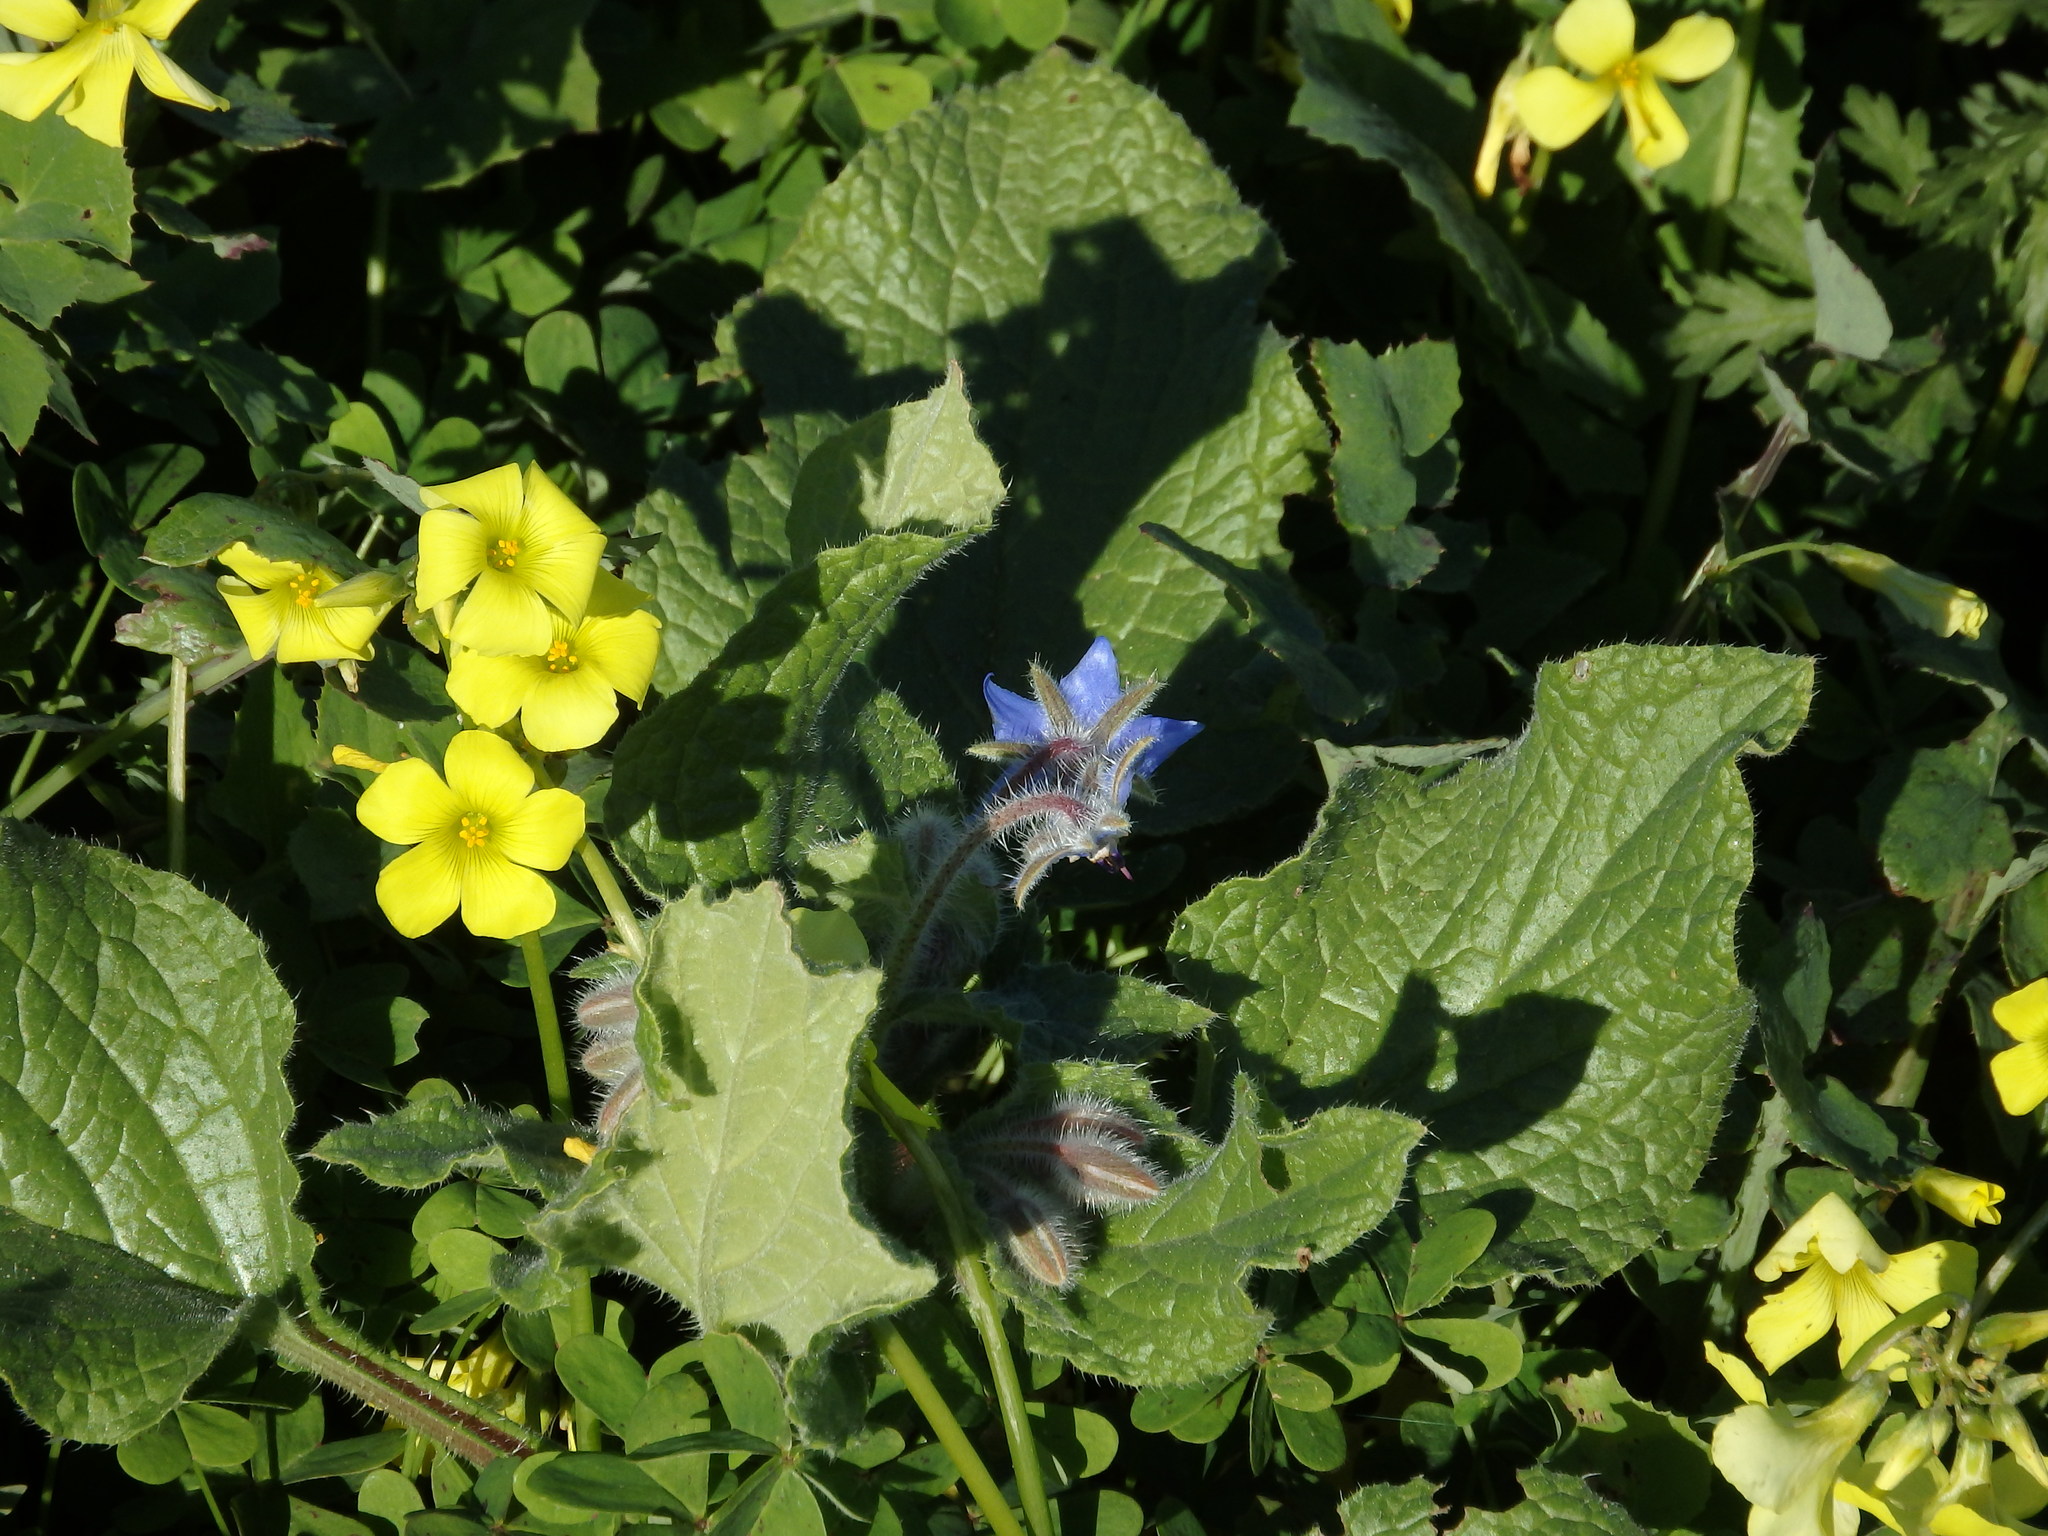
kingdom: Plantae
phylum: Tracheophyta
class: Magnoliopsida
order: Boraginales
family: Boraginaceae
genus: Borago
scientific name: Borago officinalis
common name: Borage
